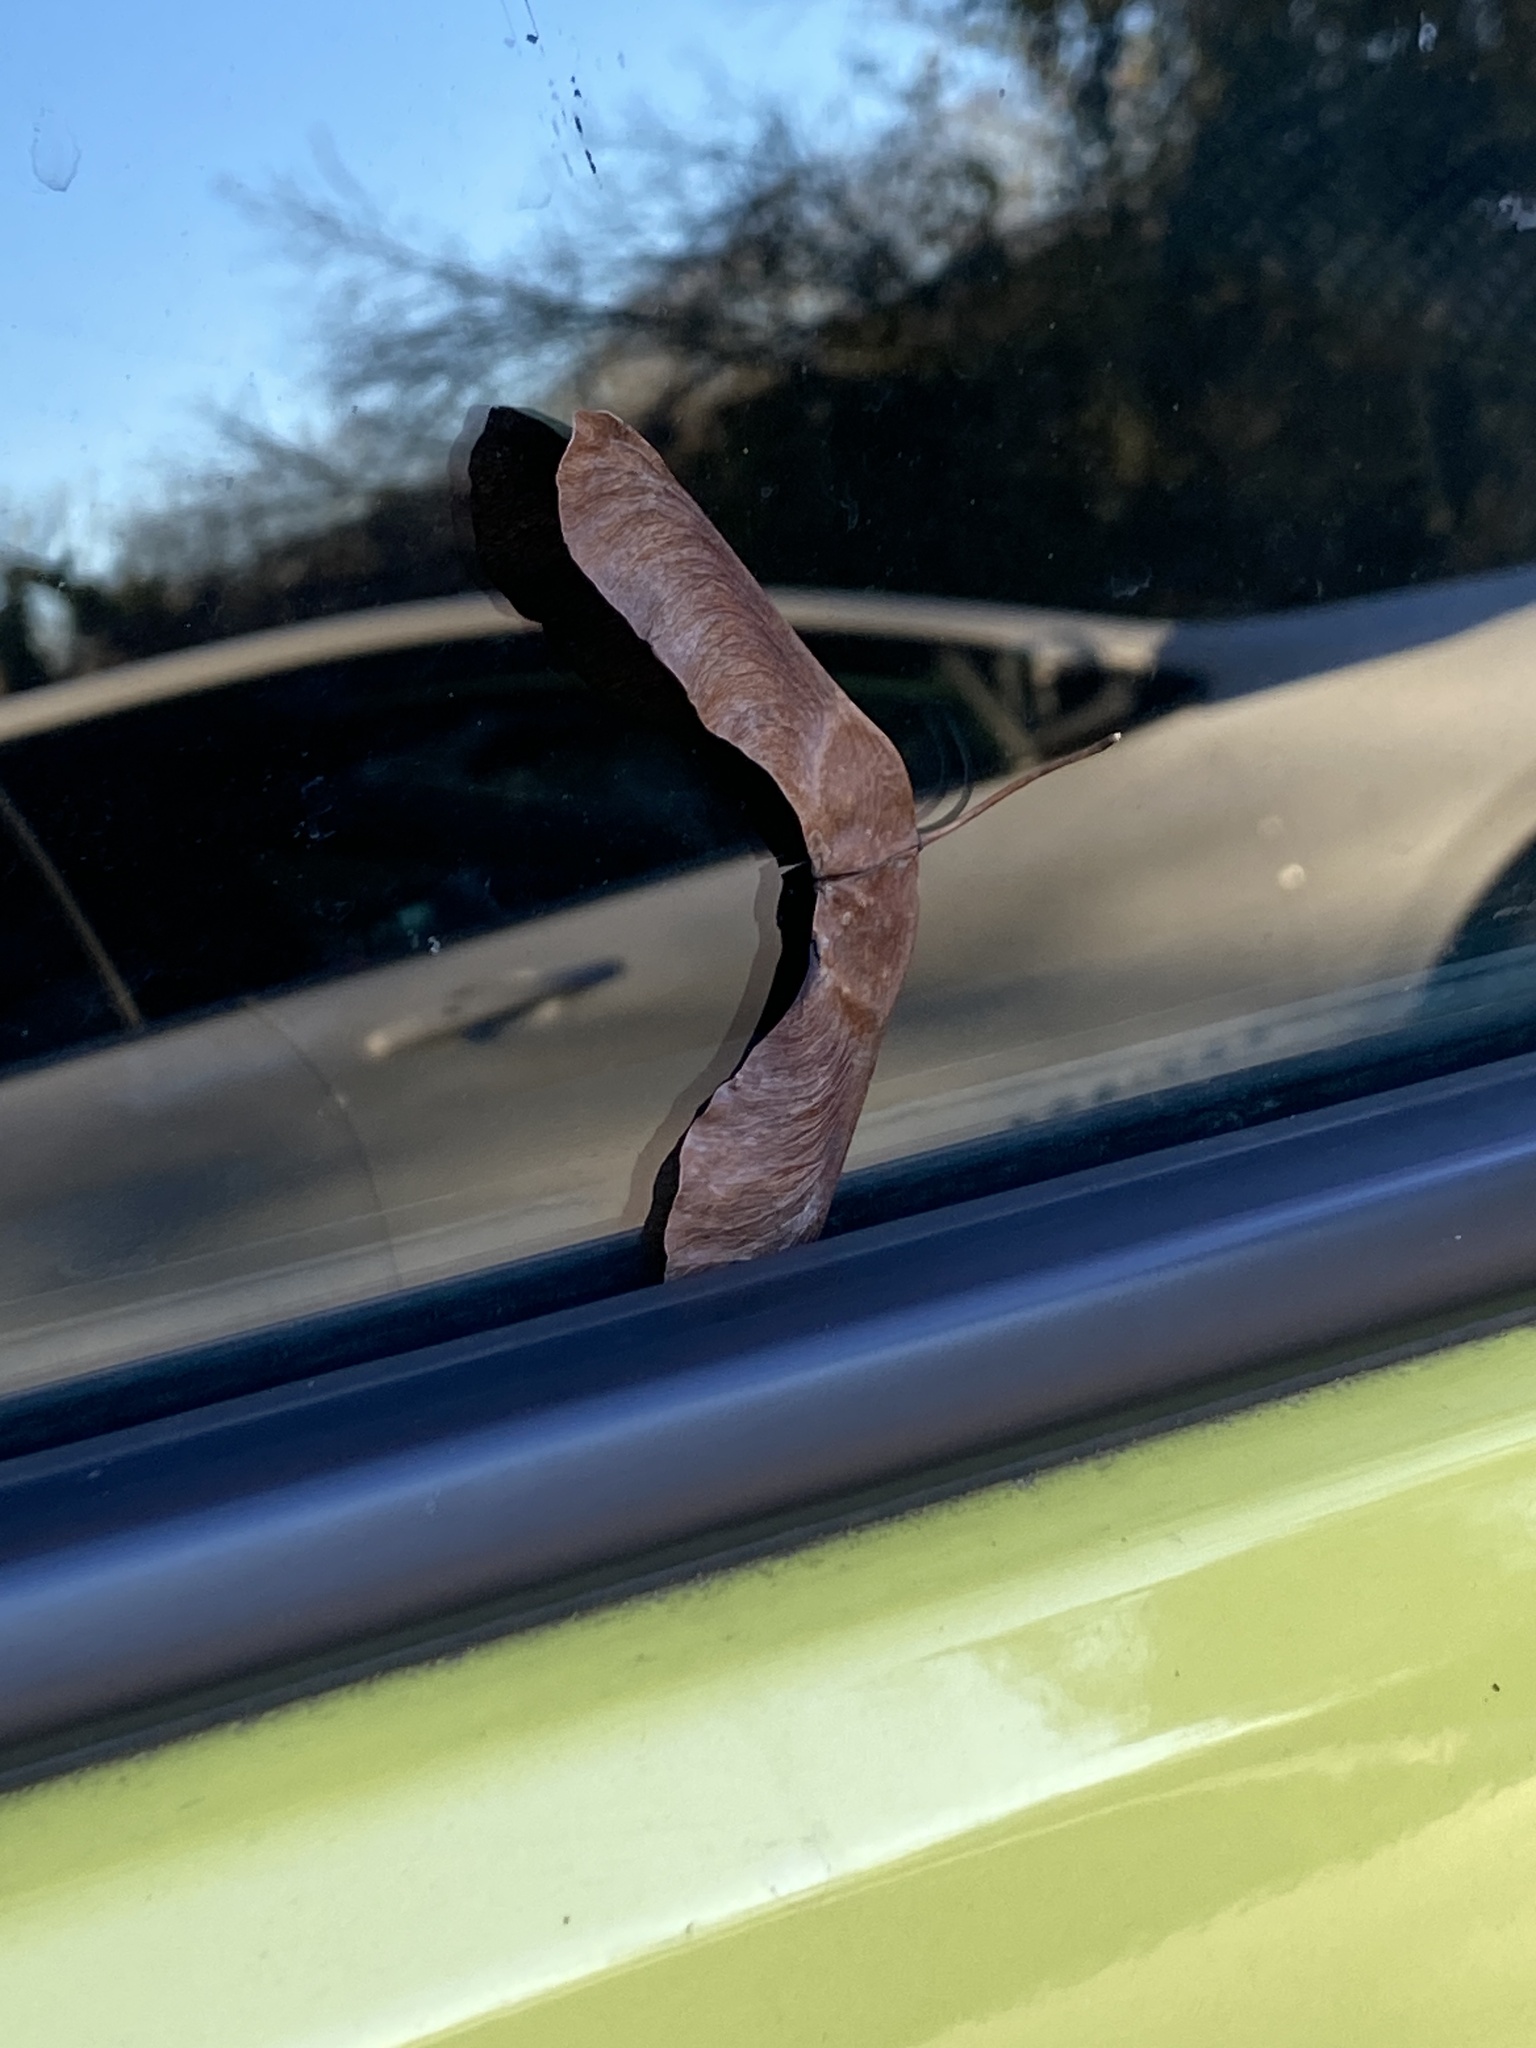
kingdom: Plantae
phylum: Tracheophyta
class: Magnoliopsida
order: Sapindales
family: Sapindaceae
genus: Acer
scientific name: Acer platanoides
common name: Norway maple
